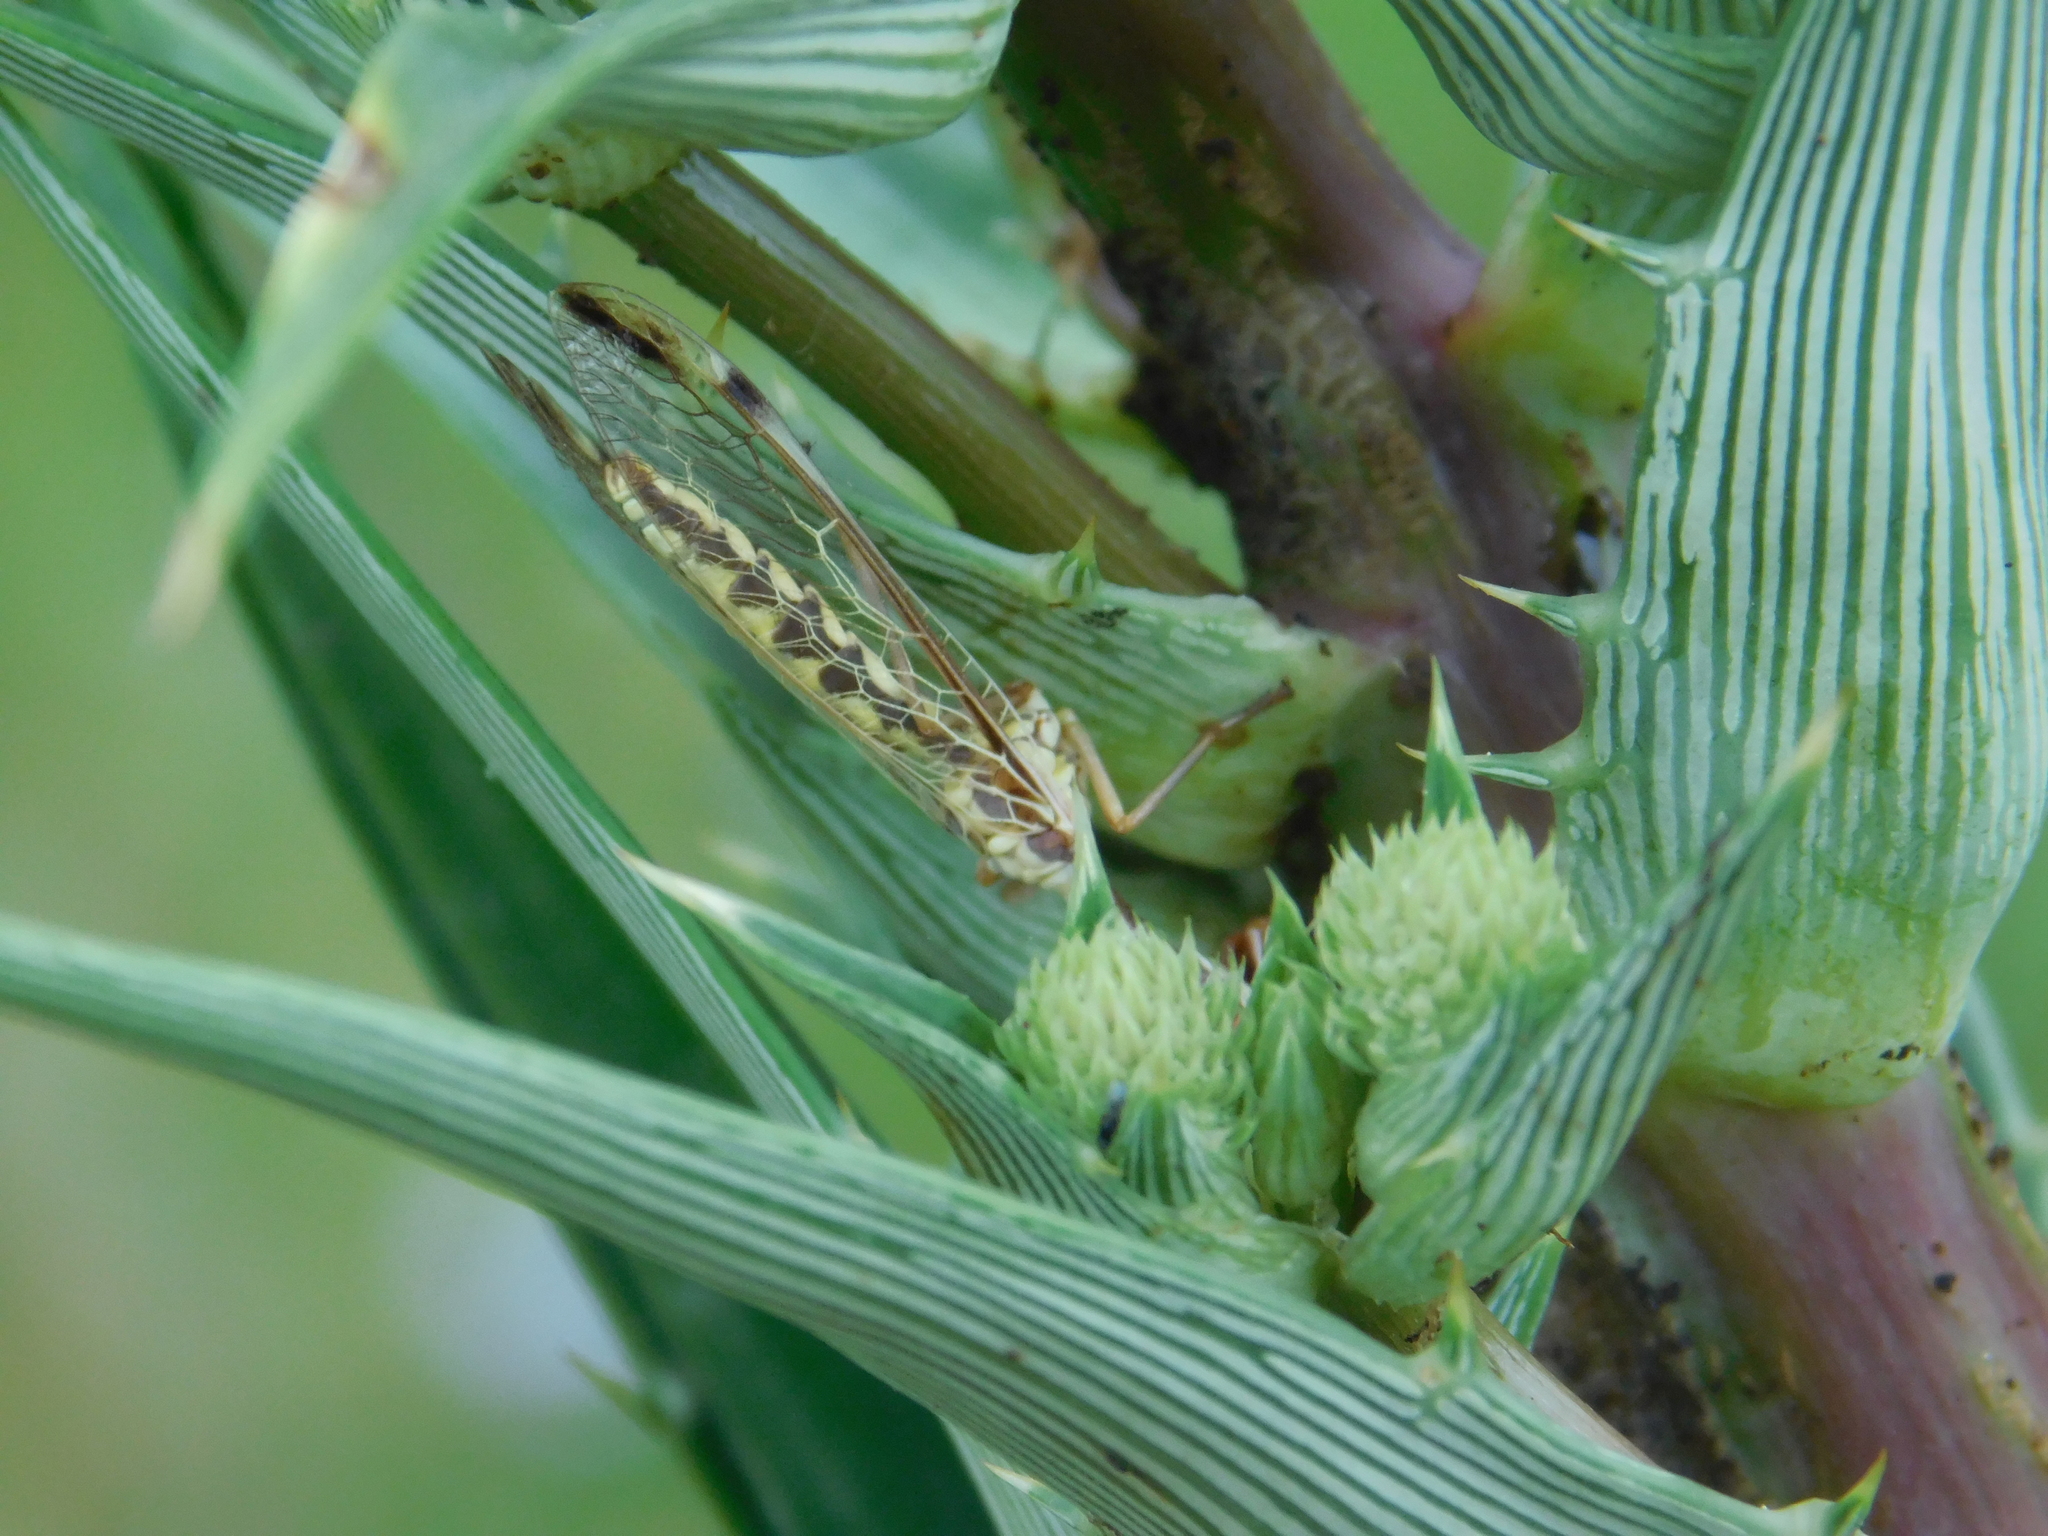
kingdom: Animalia
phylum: Arthropoda
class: Insecta
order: Neuroptera
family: Mantispidae
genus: Paramantispa
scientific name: Paramantispa prolixa
